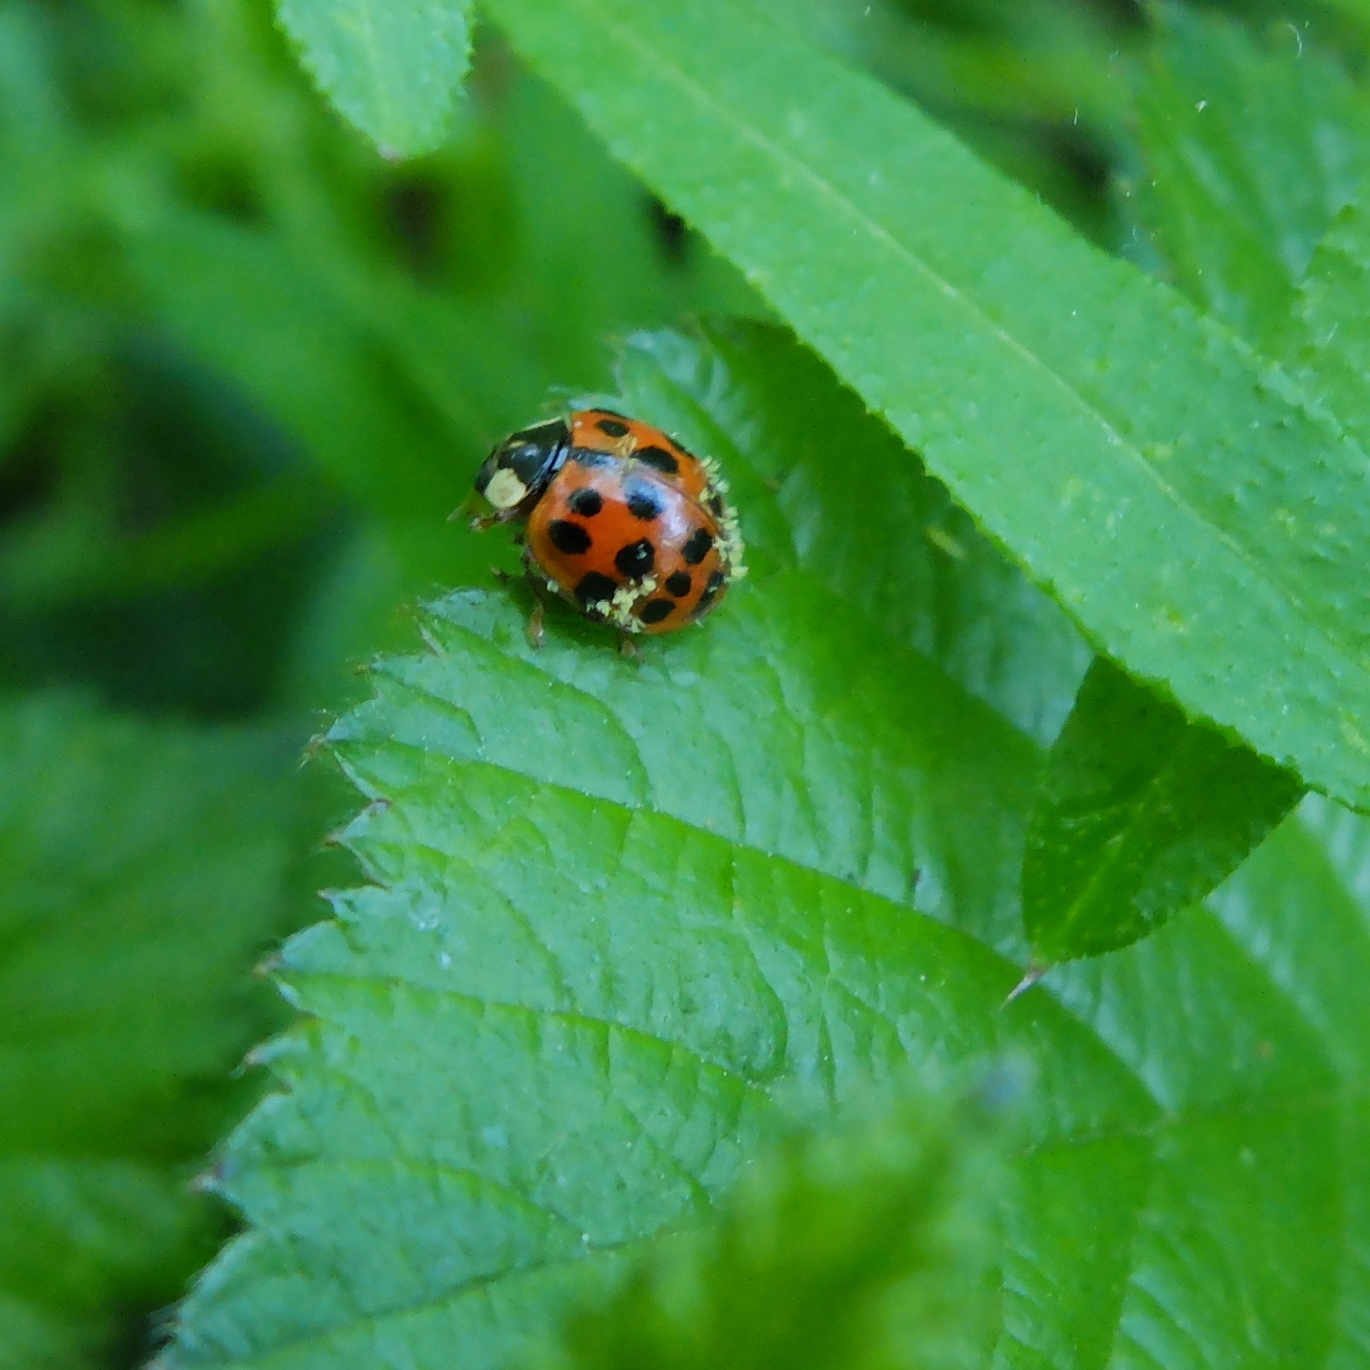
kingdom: Animalia
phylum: Arthropoda
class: Insecta
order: Coleoptera
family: Coccinellidae
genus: Harmonia
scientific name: Harmonia axyridis
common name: Harlequin ladybird
